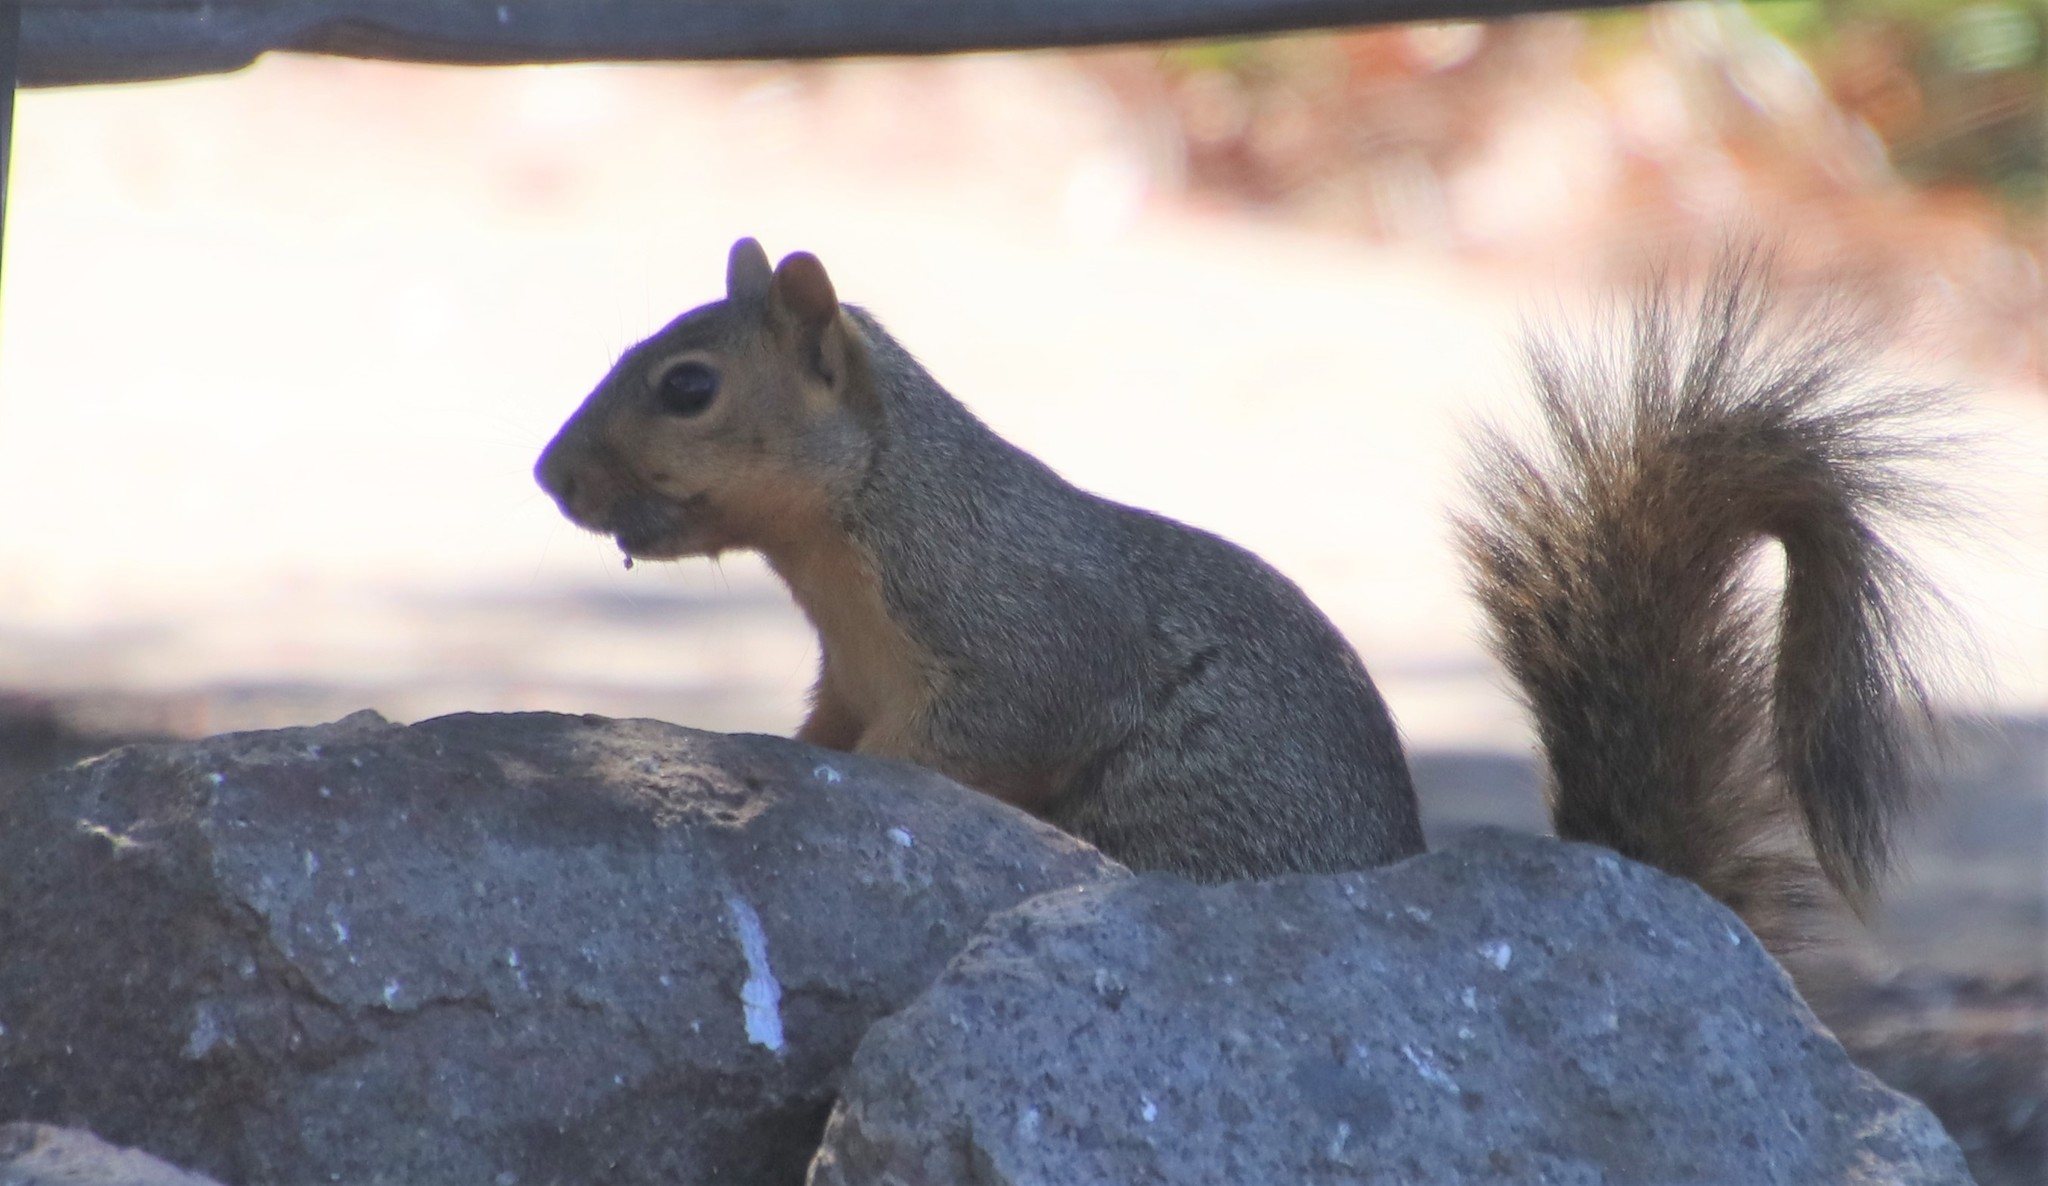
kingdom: Animalia
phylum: Chordata
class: Mammalia
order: Rodentia
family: Sciuridae
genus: Sciurus
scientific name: Sciurus niger
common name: Fox squirrel
